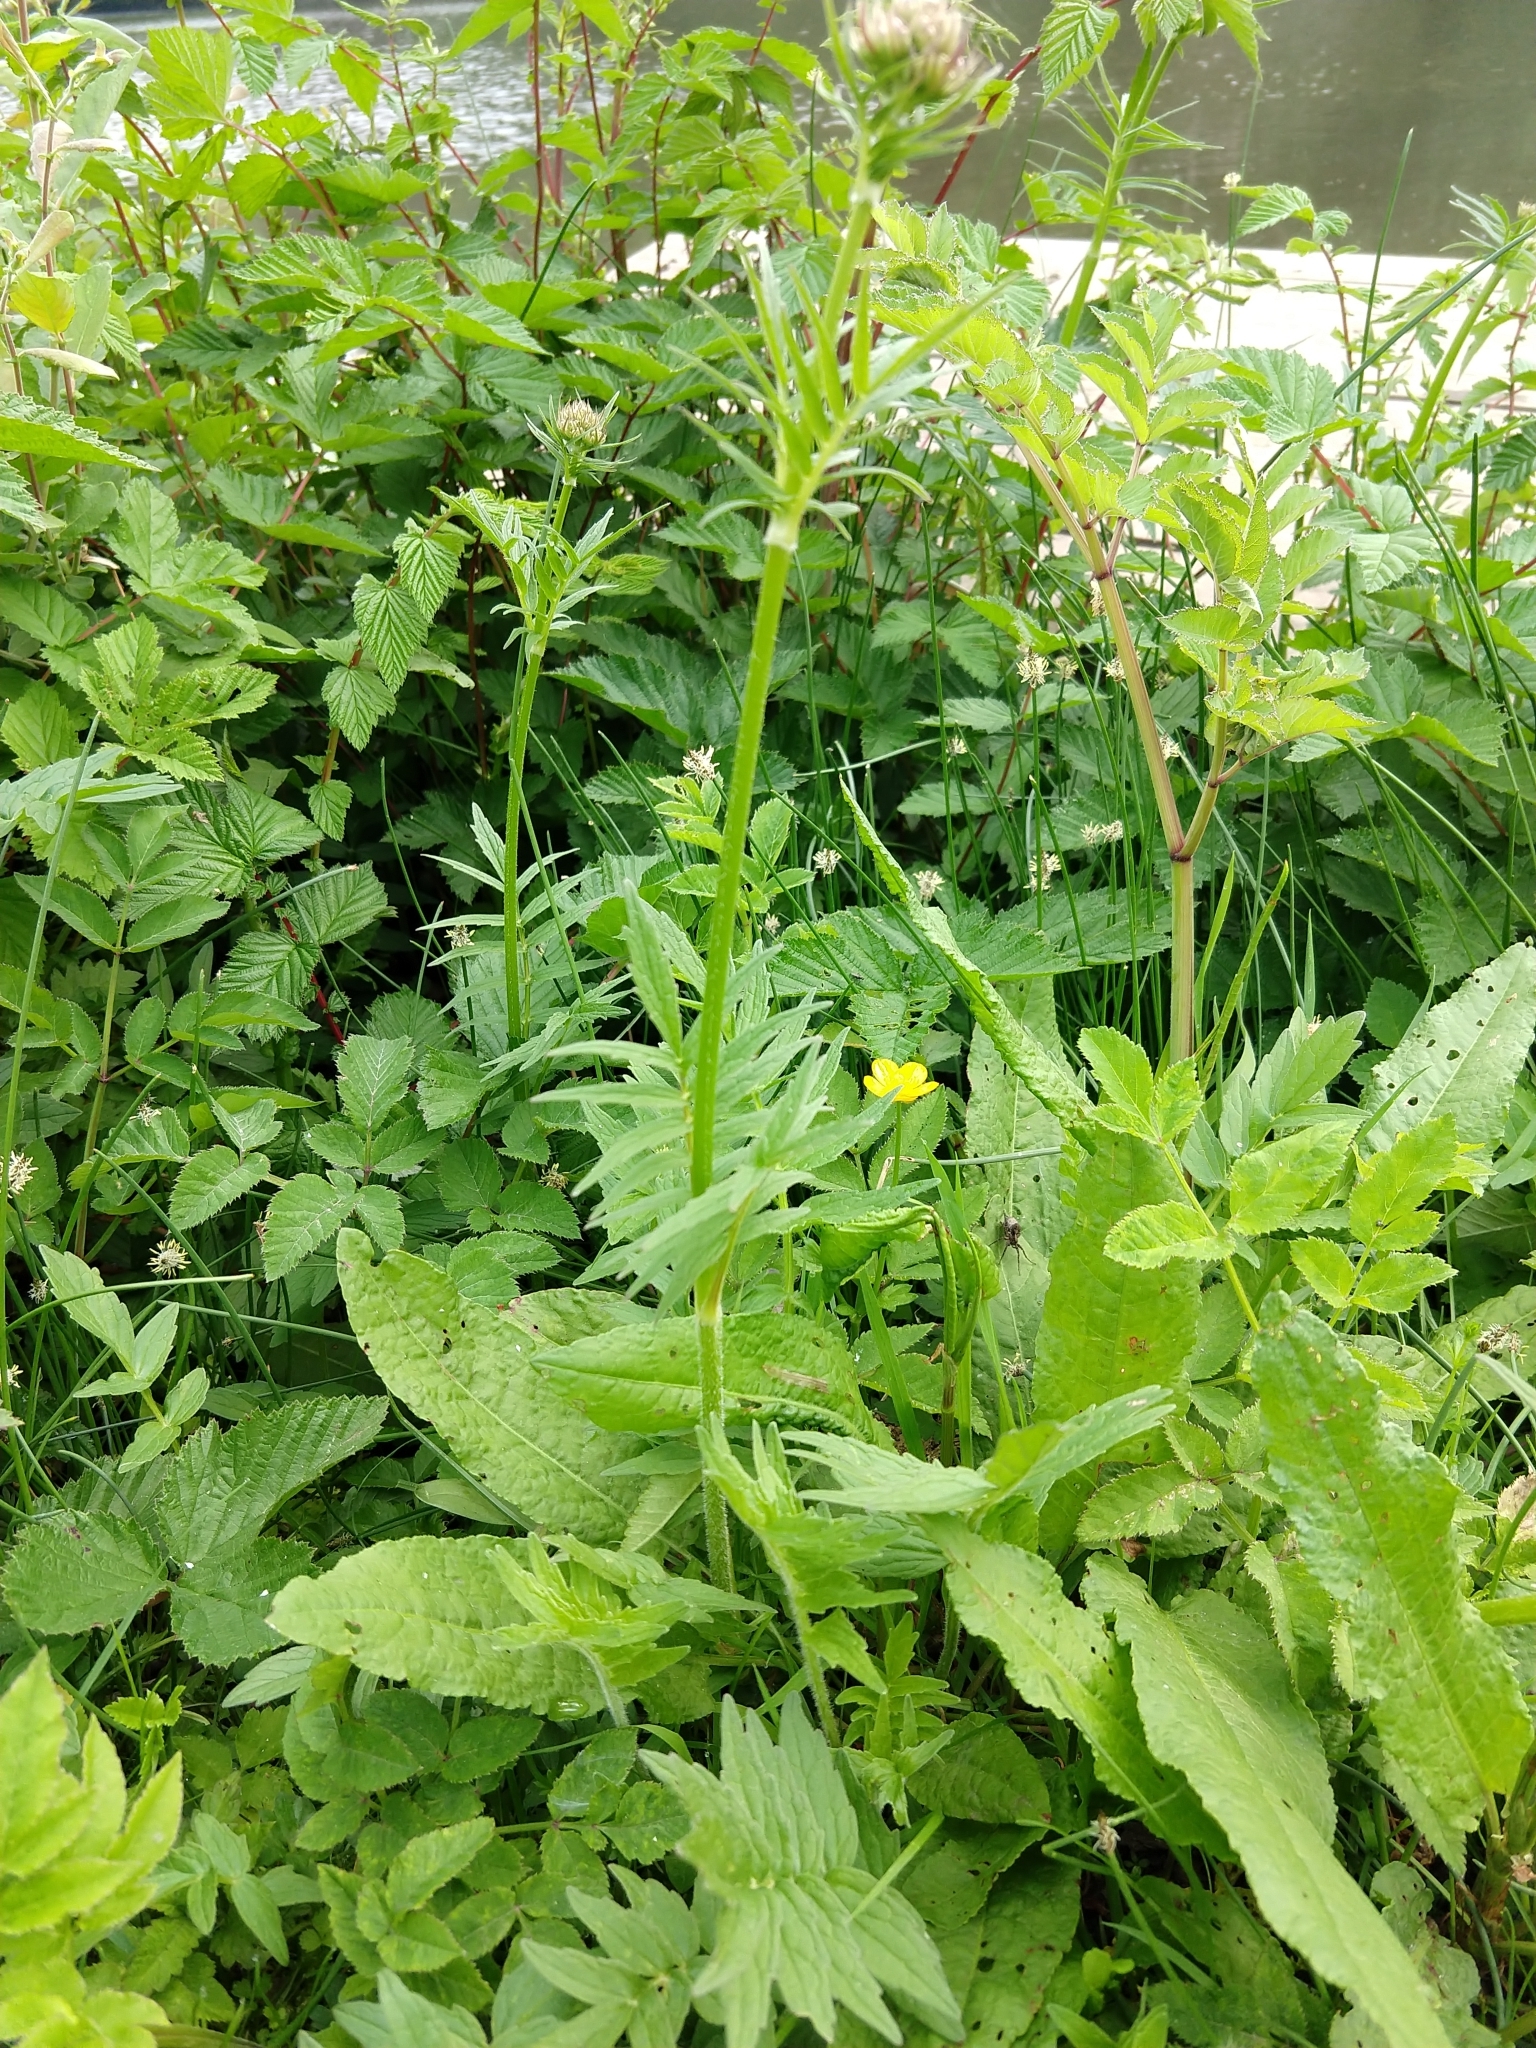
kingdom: Plantae
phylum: Tracheophyta
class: Magnoliopsida
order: Dipsacales
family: Caprifoliaceae
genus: Valeriana
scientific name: Valeriana officinalis
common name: Common valerian
